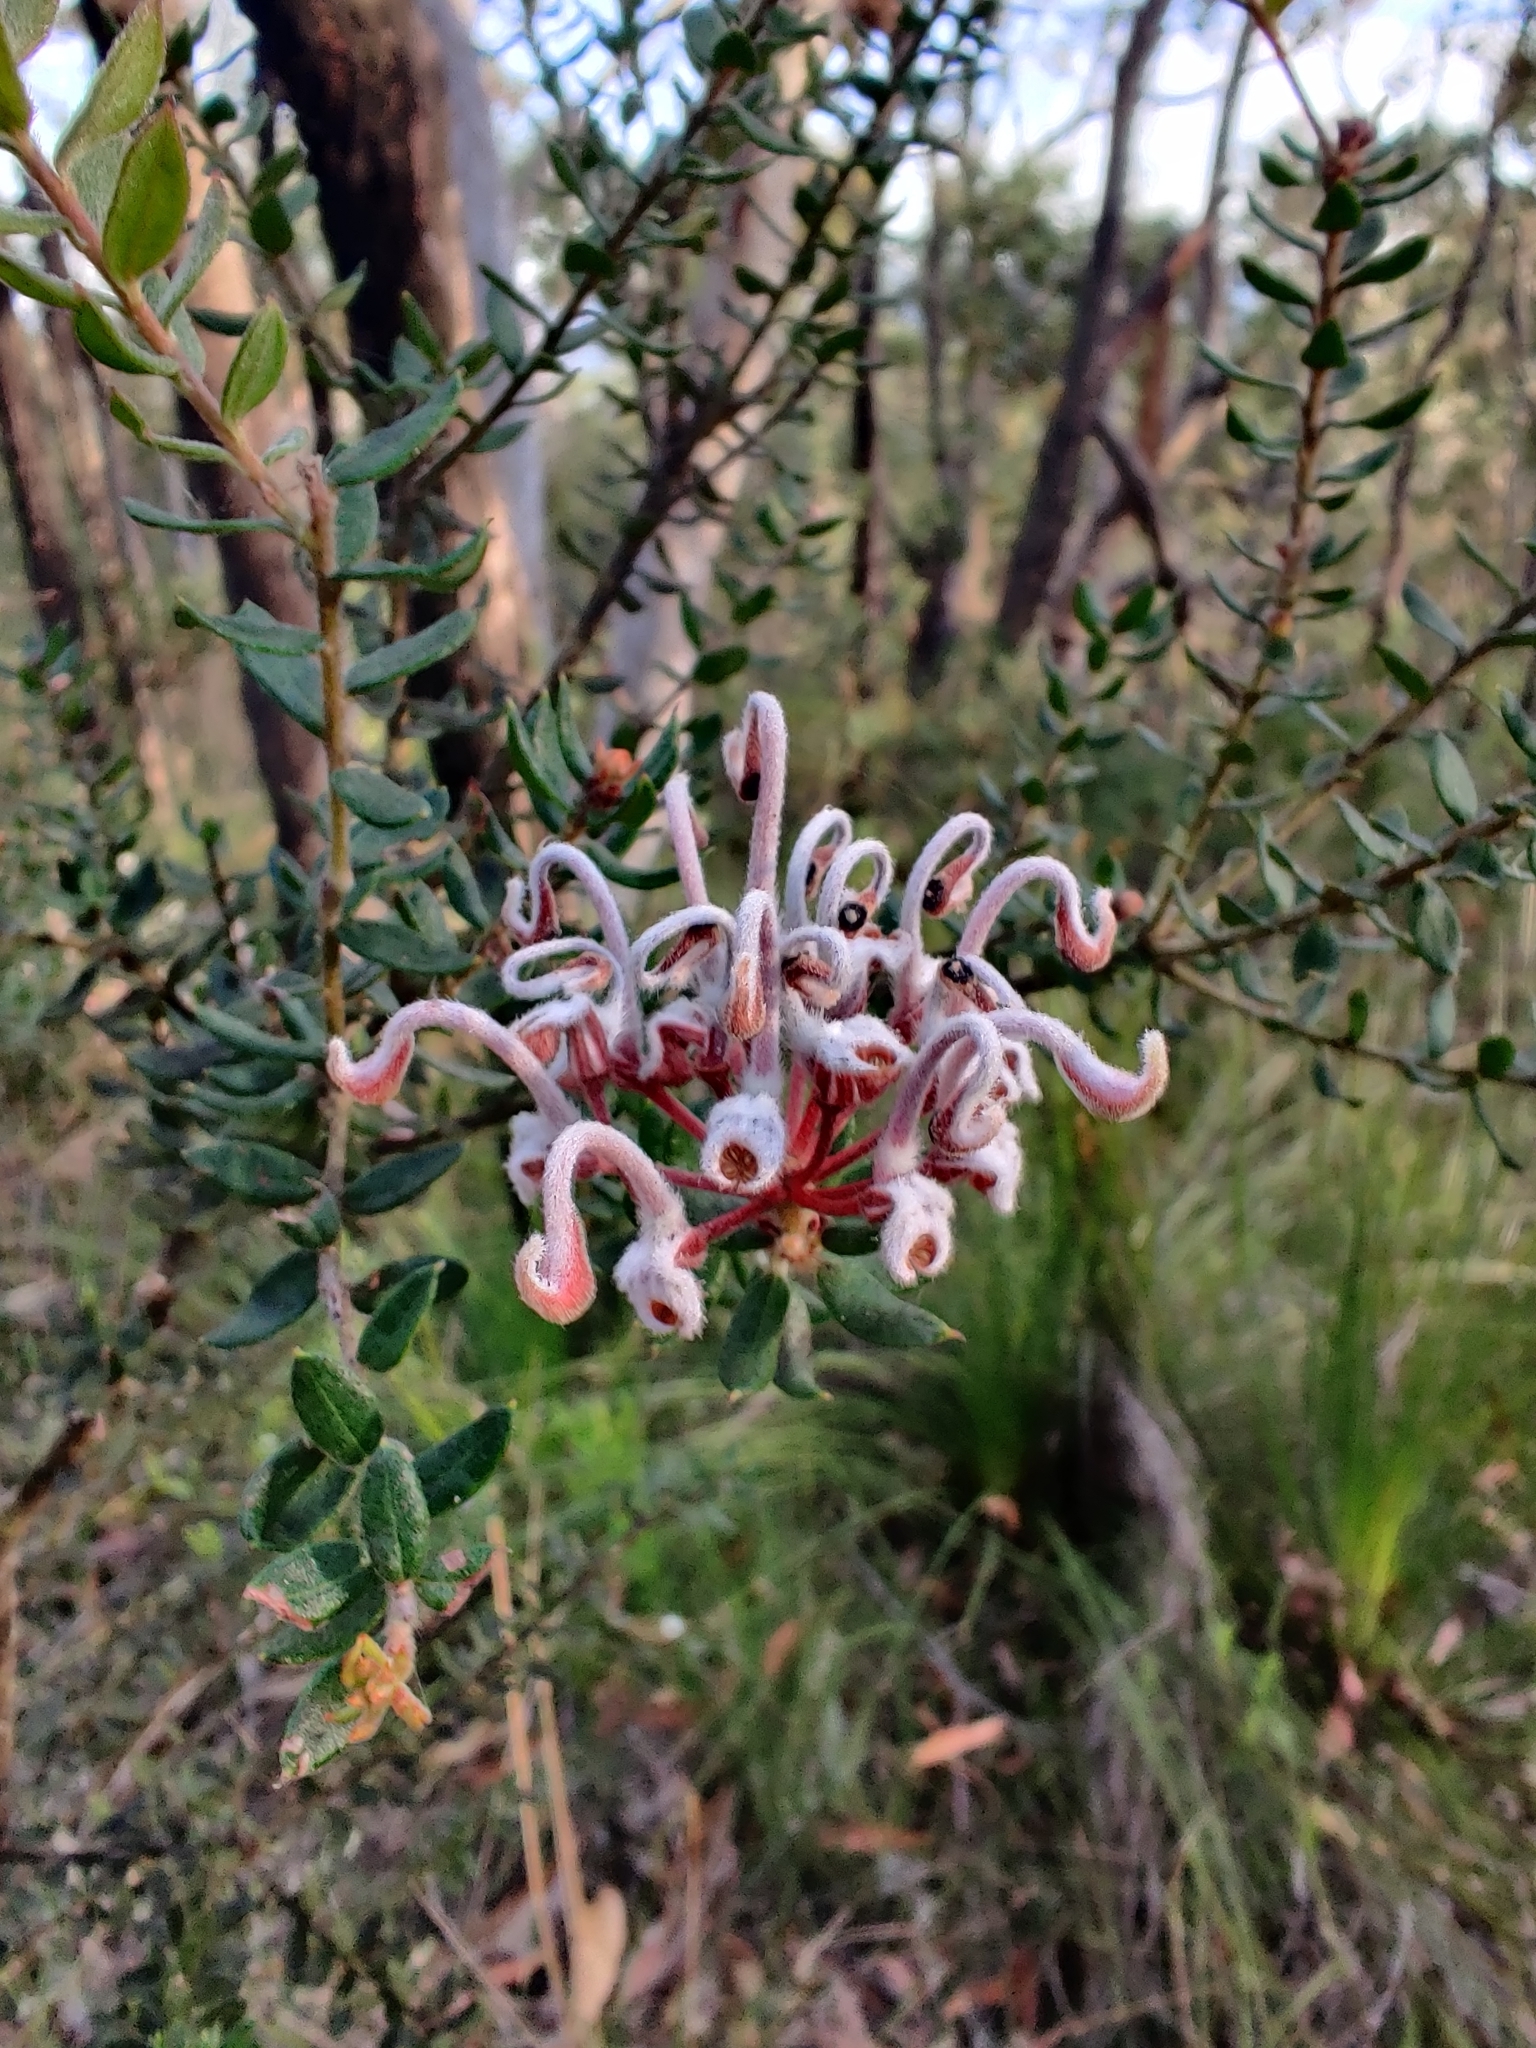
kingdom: Plantae
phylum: Tracheophyta
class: Magnoliopsida
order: Proteales
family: Proteaceae
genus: Grevillea
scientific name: Grevillea buxifolia
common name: Grey spiderflower
